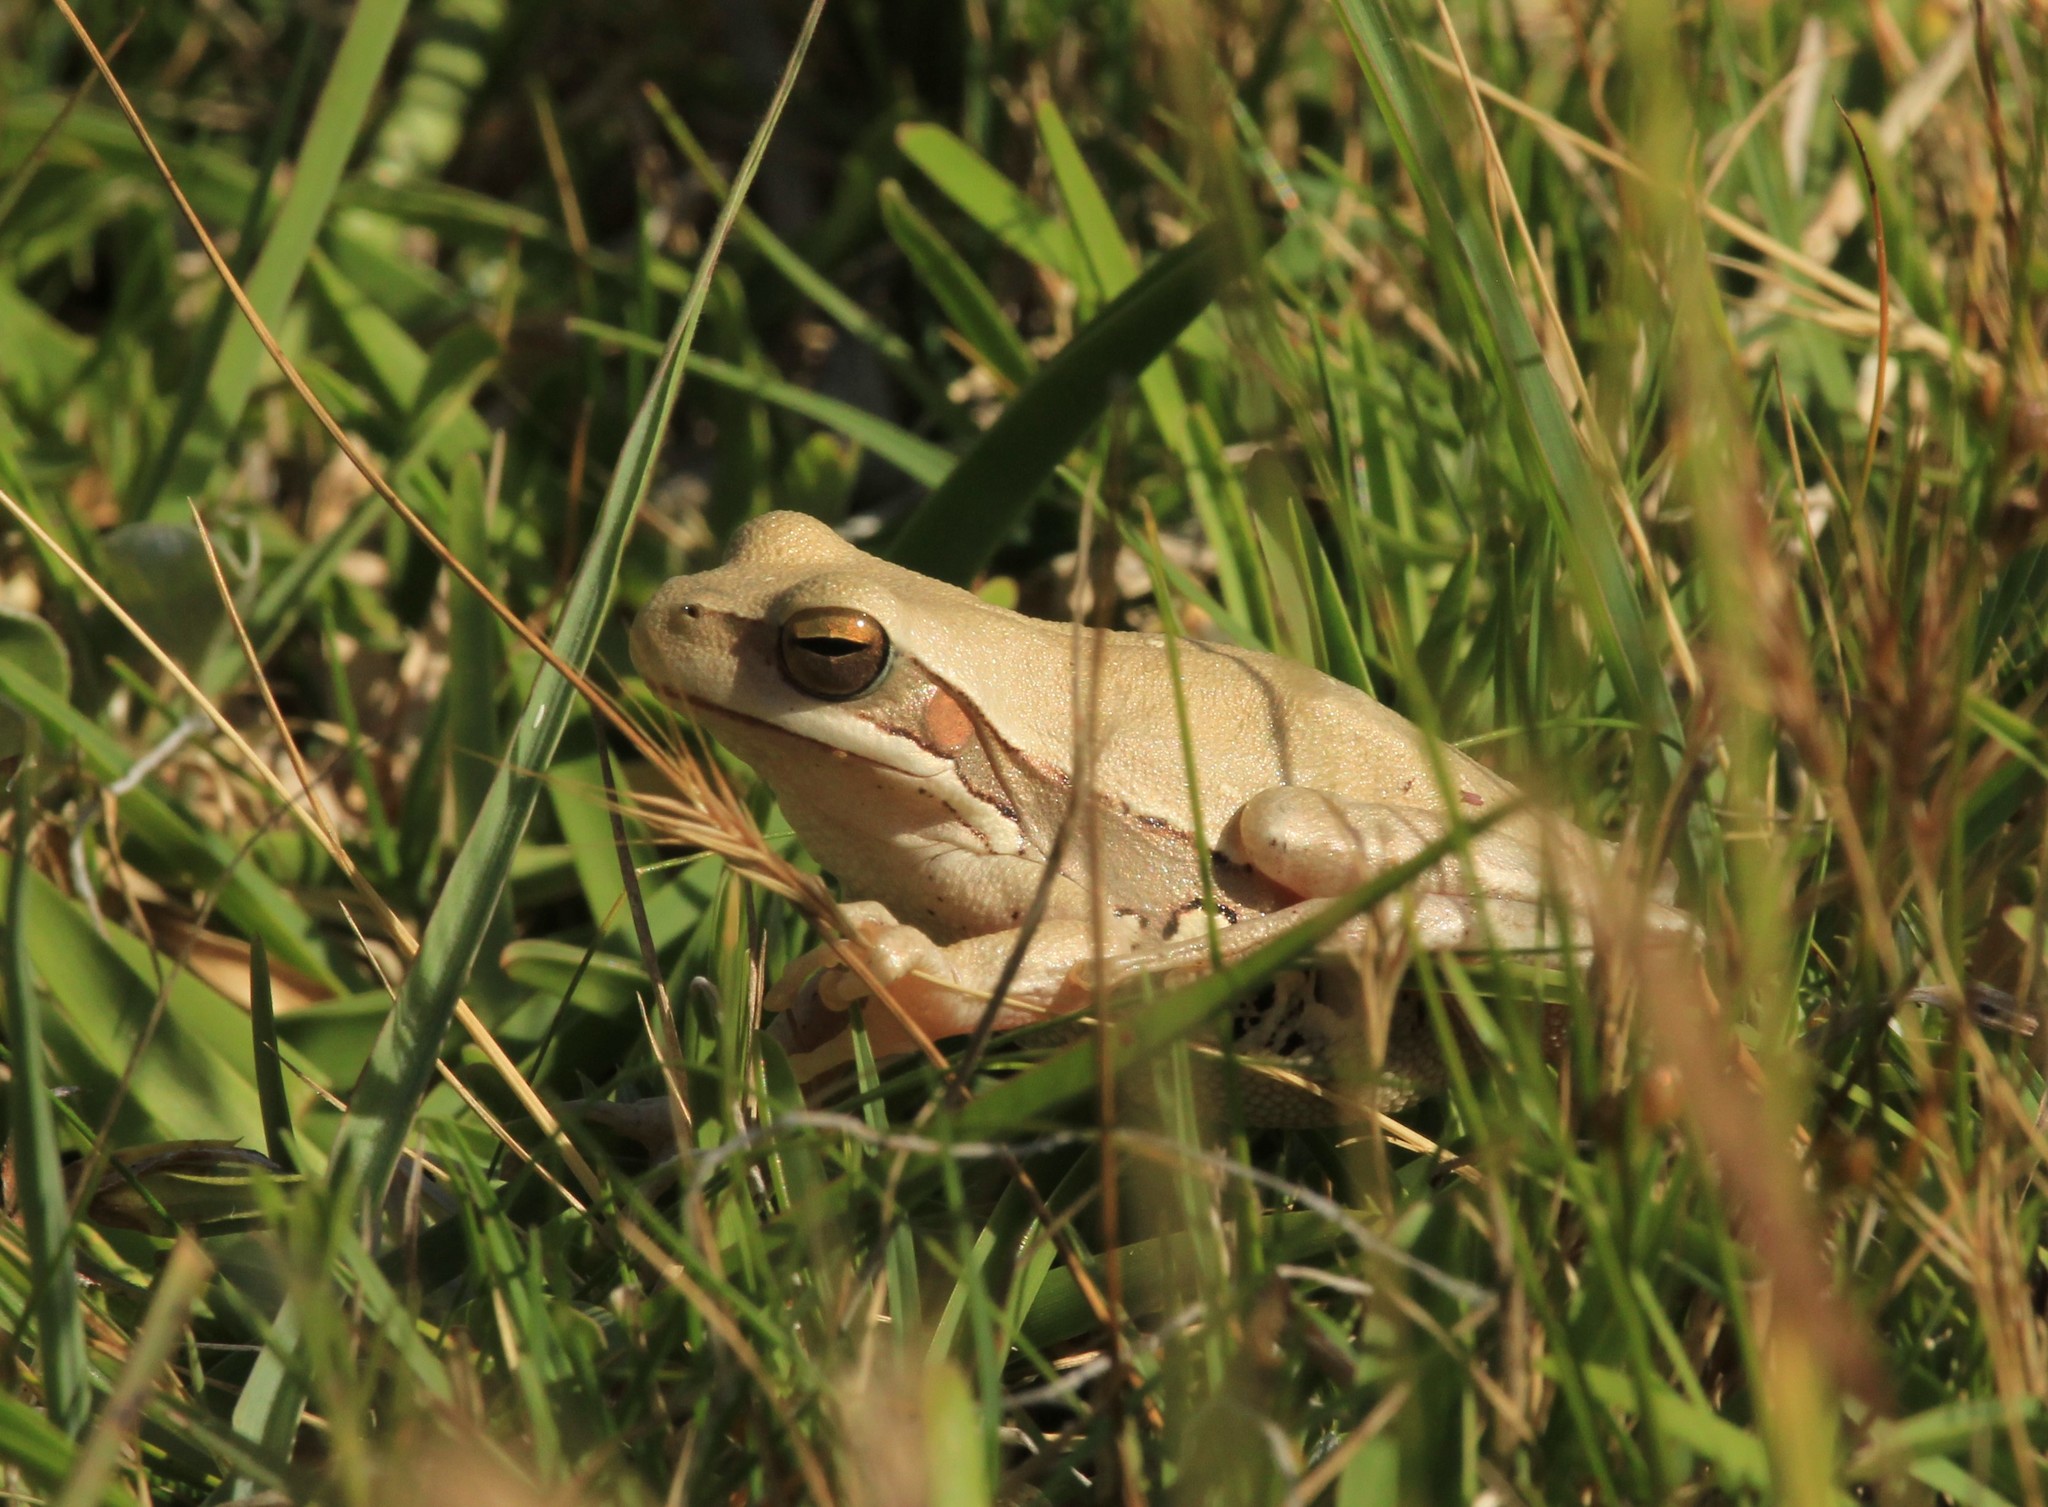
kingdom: Animalia
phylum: Chordata
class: Amphibia
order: Anura
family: Hylidae
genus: Boana
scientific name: Boana pulchella
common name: Montevideo treefrog
